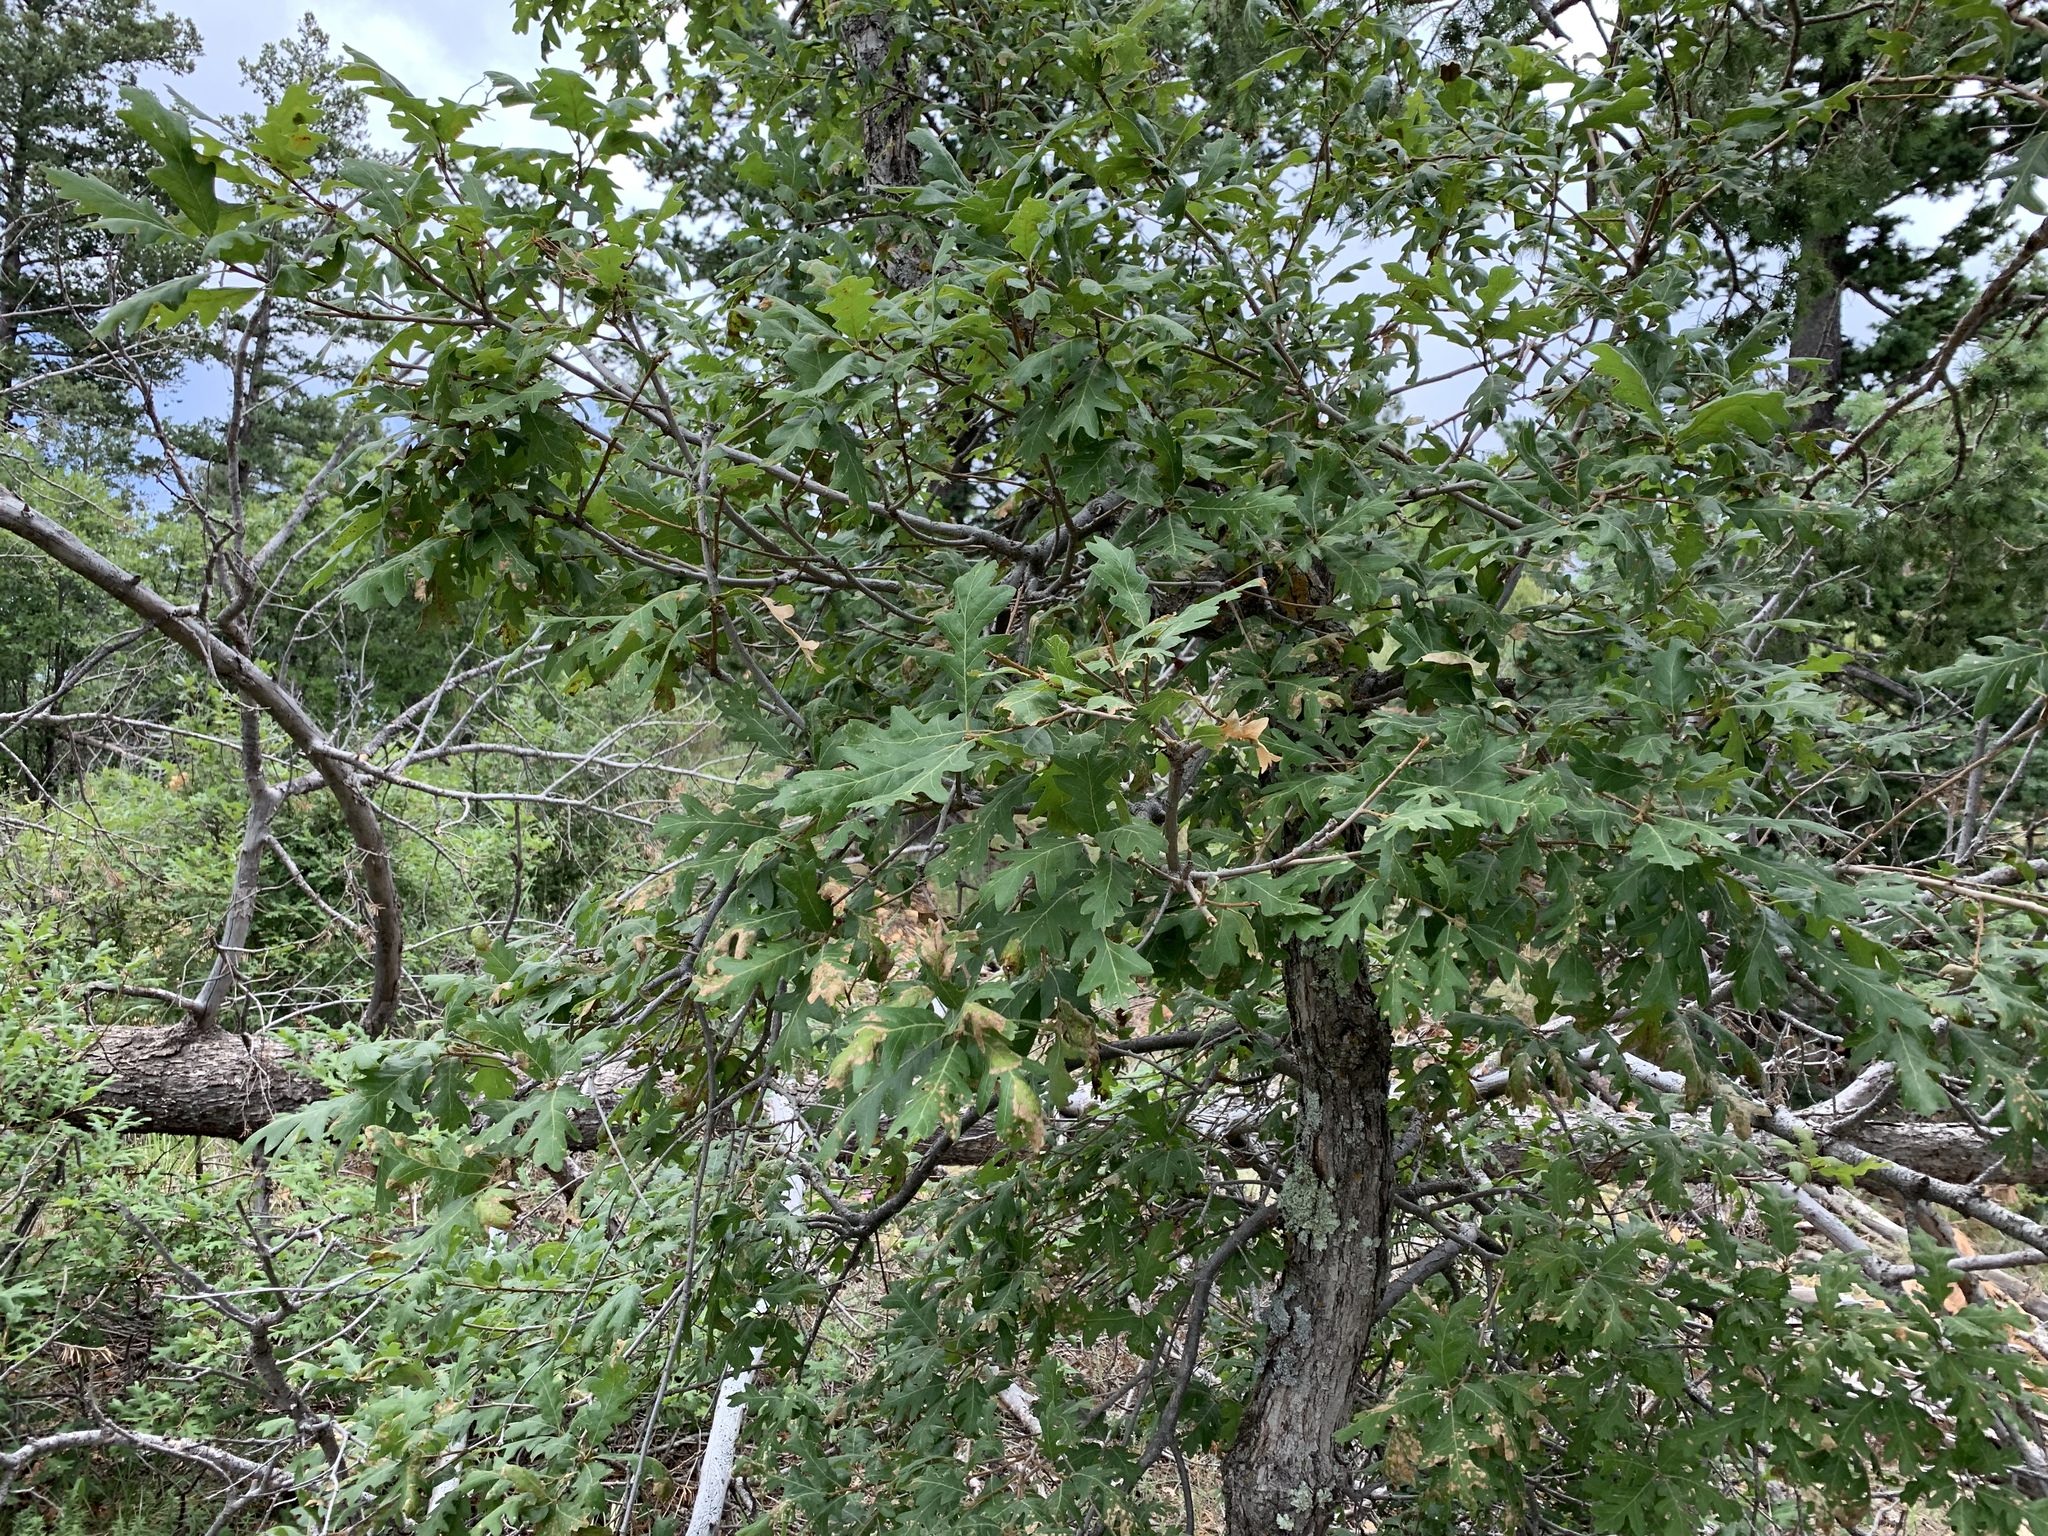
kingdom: Plantae
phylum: Tracheophyta
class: Magnoliopsida
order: Fagales
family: Fagaceae
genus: Quercus
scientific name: Quercus gambelii
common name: Gambel oak
